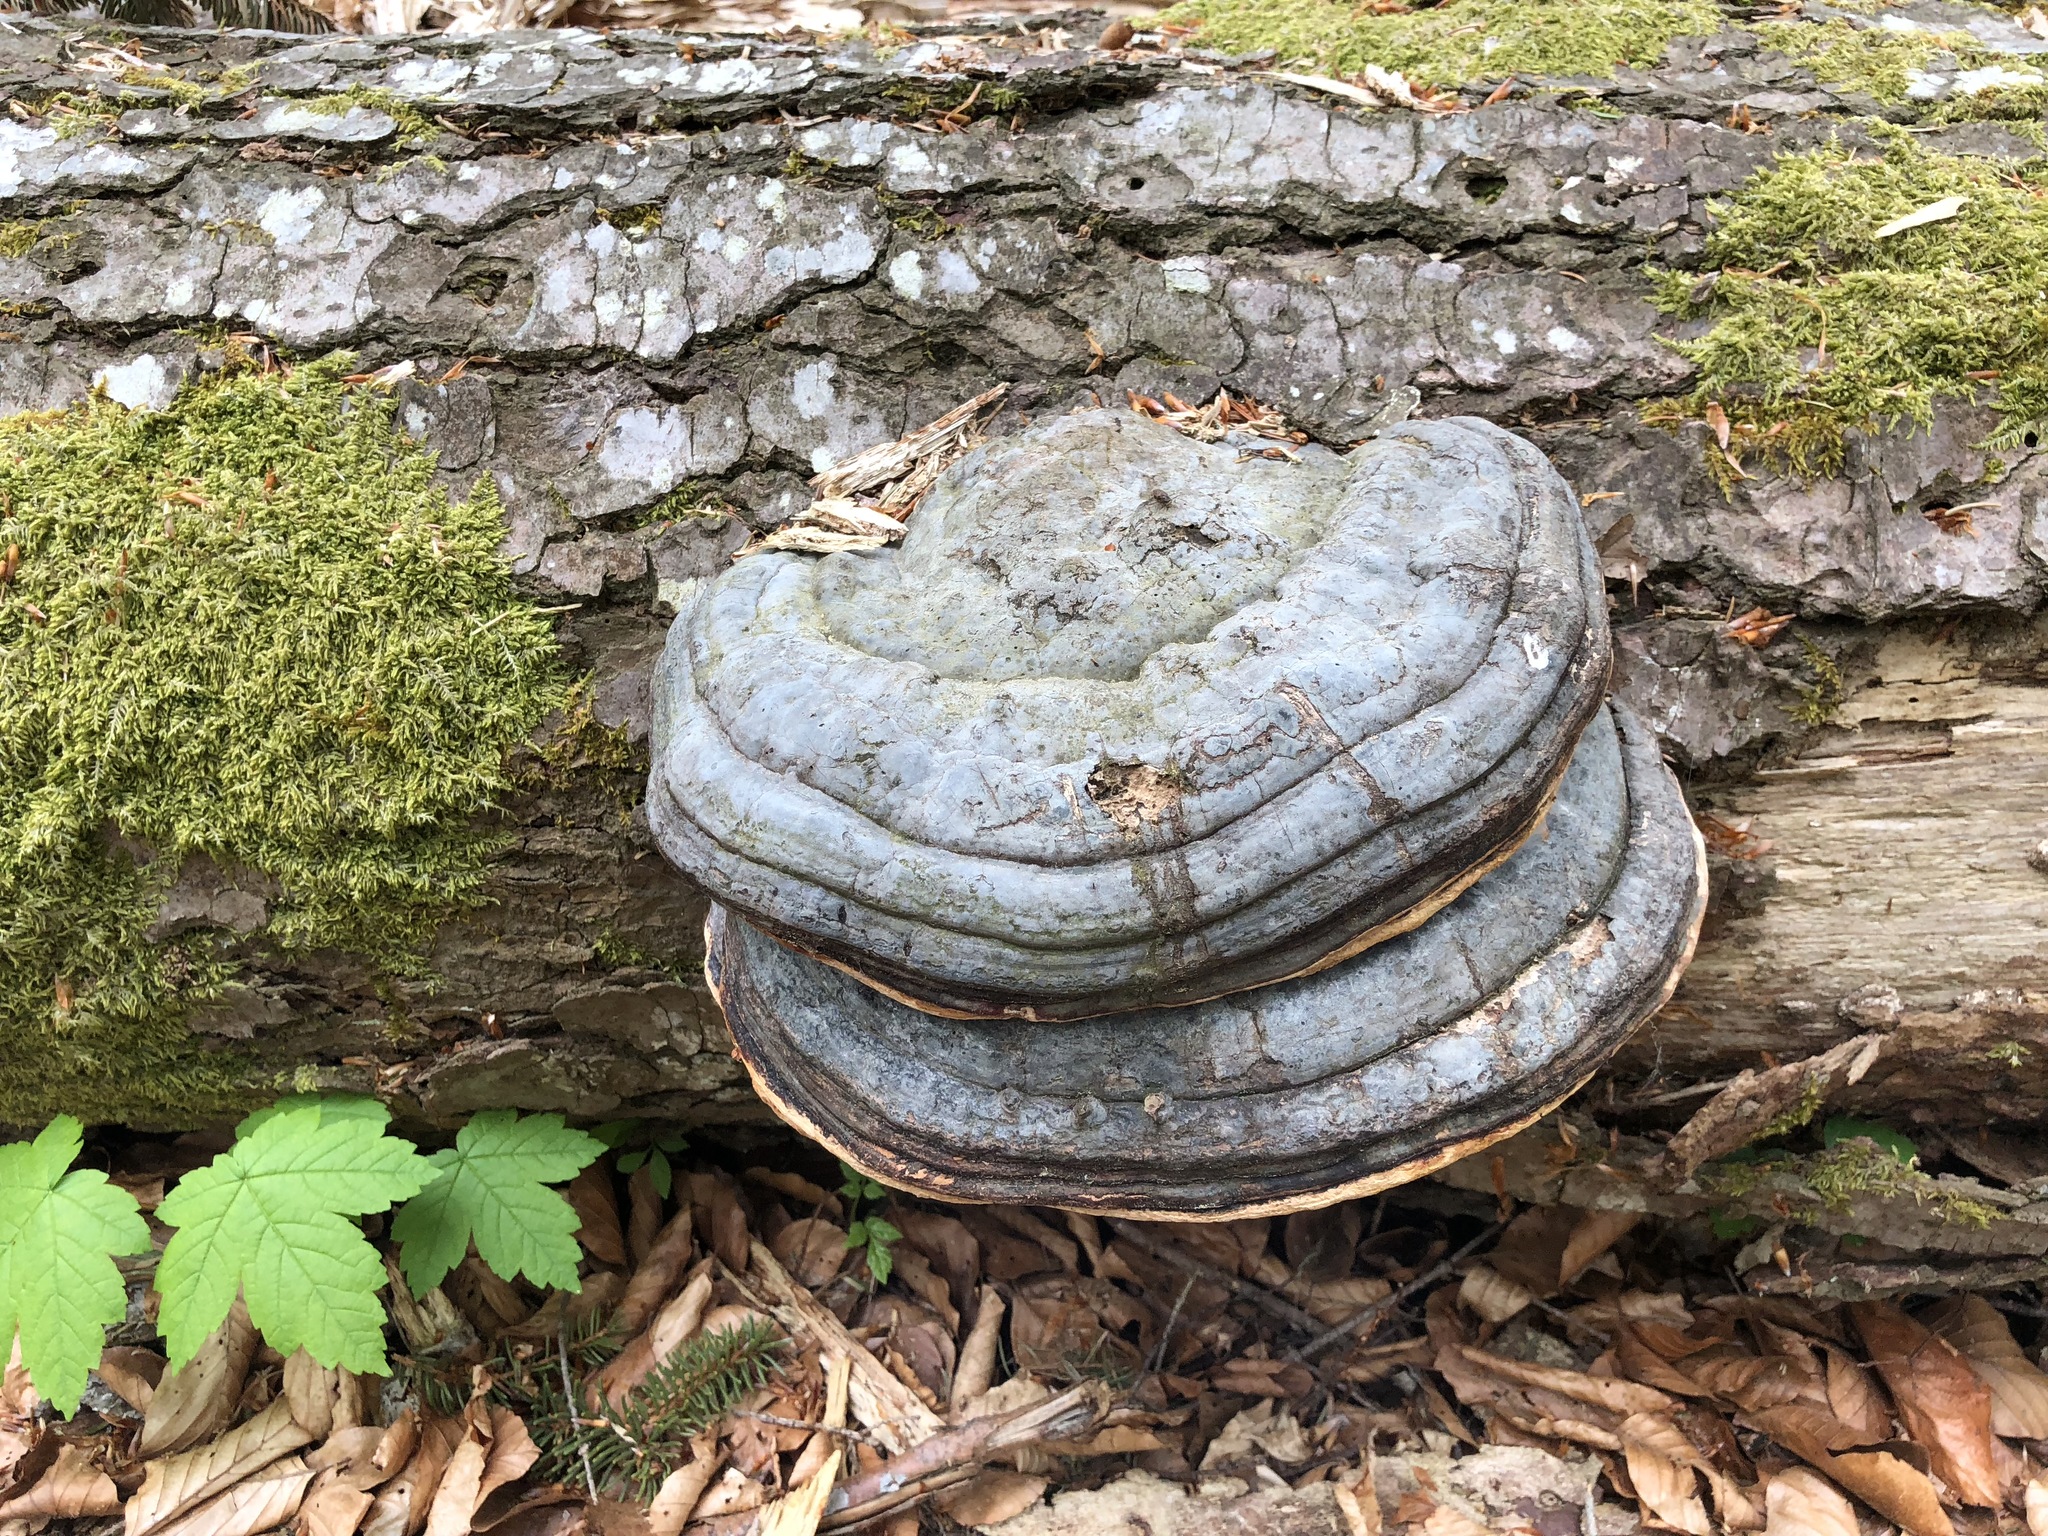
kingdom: Fungi
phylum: Basidiomycota
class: Agaricomycetes
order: Polyporales
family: Fomitopsidaceae
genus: Fomitopsis
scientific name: Fomitopsis pinicola
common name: Red-belted bracket
